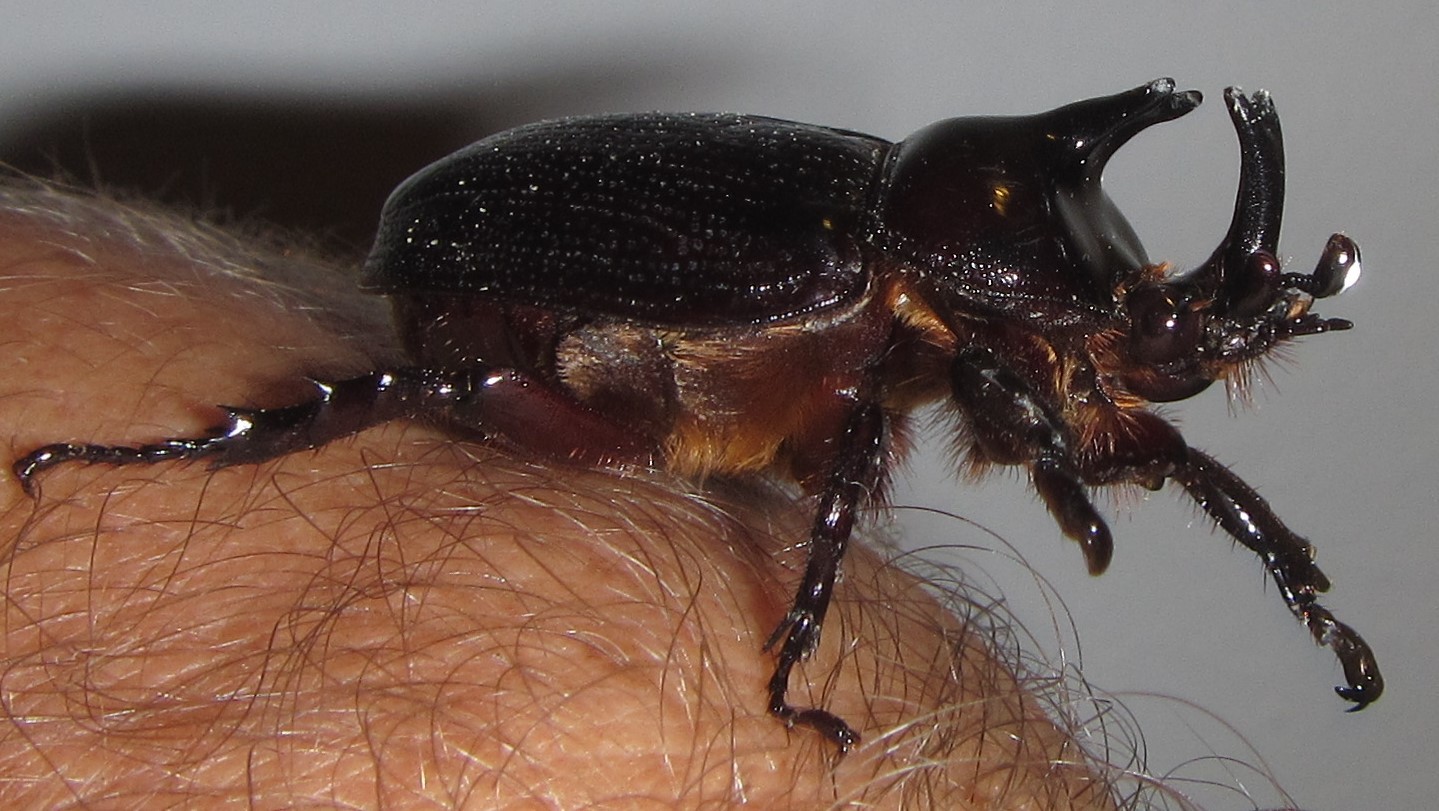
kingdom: Animalia
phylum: Arthropoda
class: Insecta
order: Coleoptera
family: Scarabaeidae
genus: Cyphonistes
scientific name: Cyphonistes vallatus
